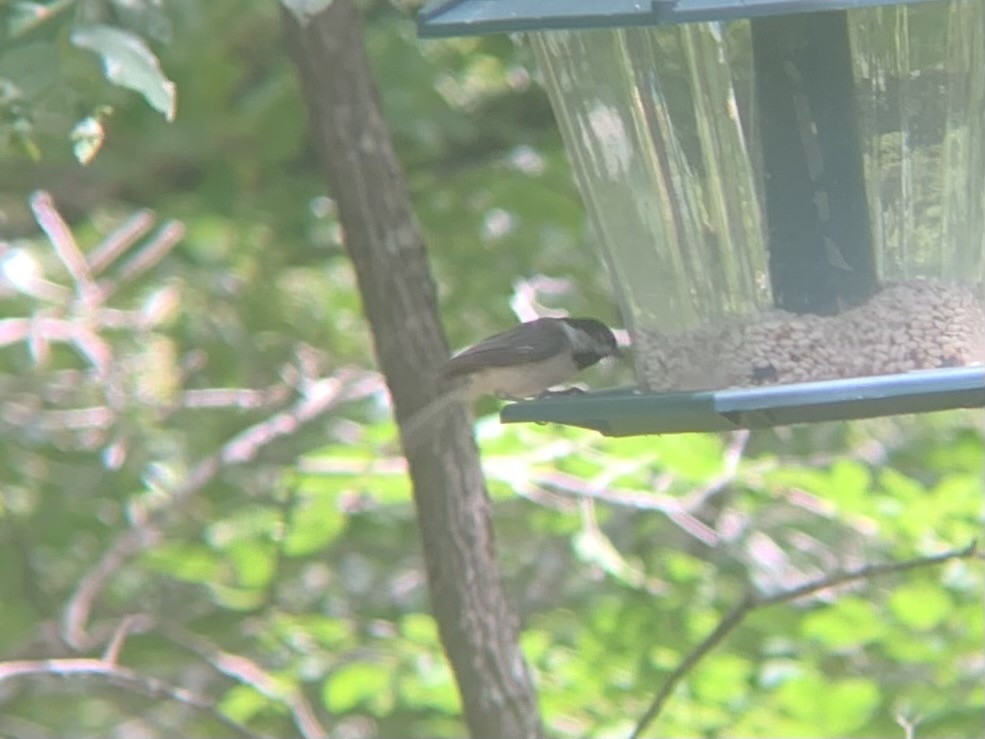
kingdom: Animalia
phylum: Chordata
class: Aves
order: Passeriformes
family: Paridae
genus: Poecile
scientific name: Poecile carolinensis
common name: Carolina chickadee
